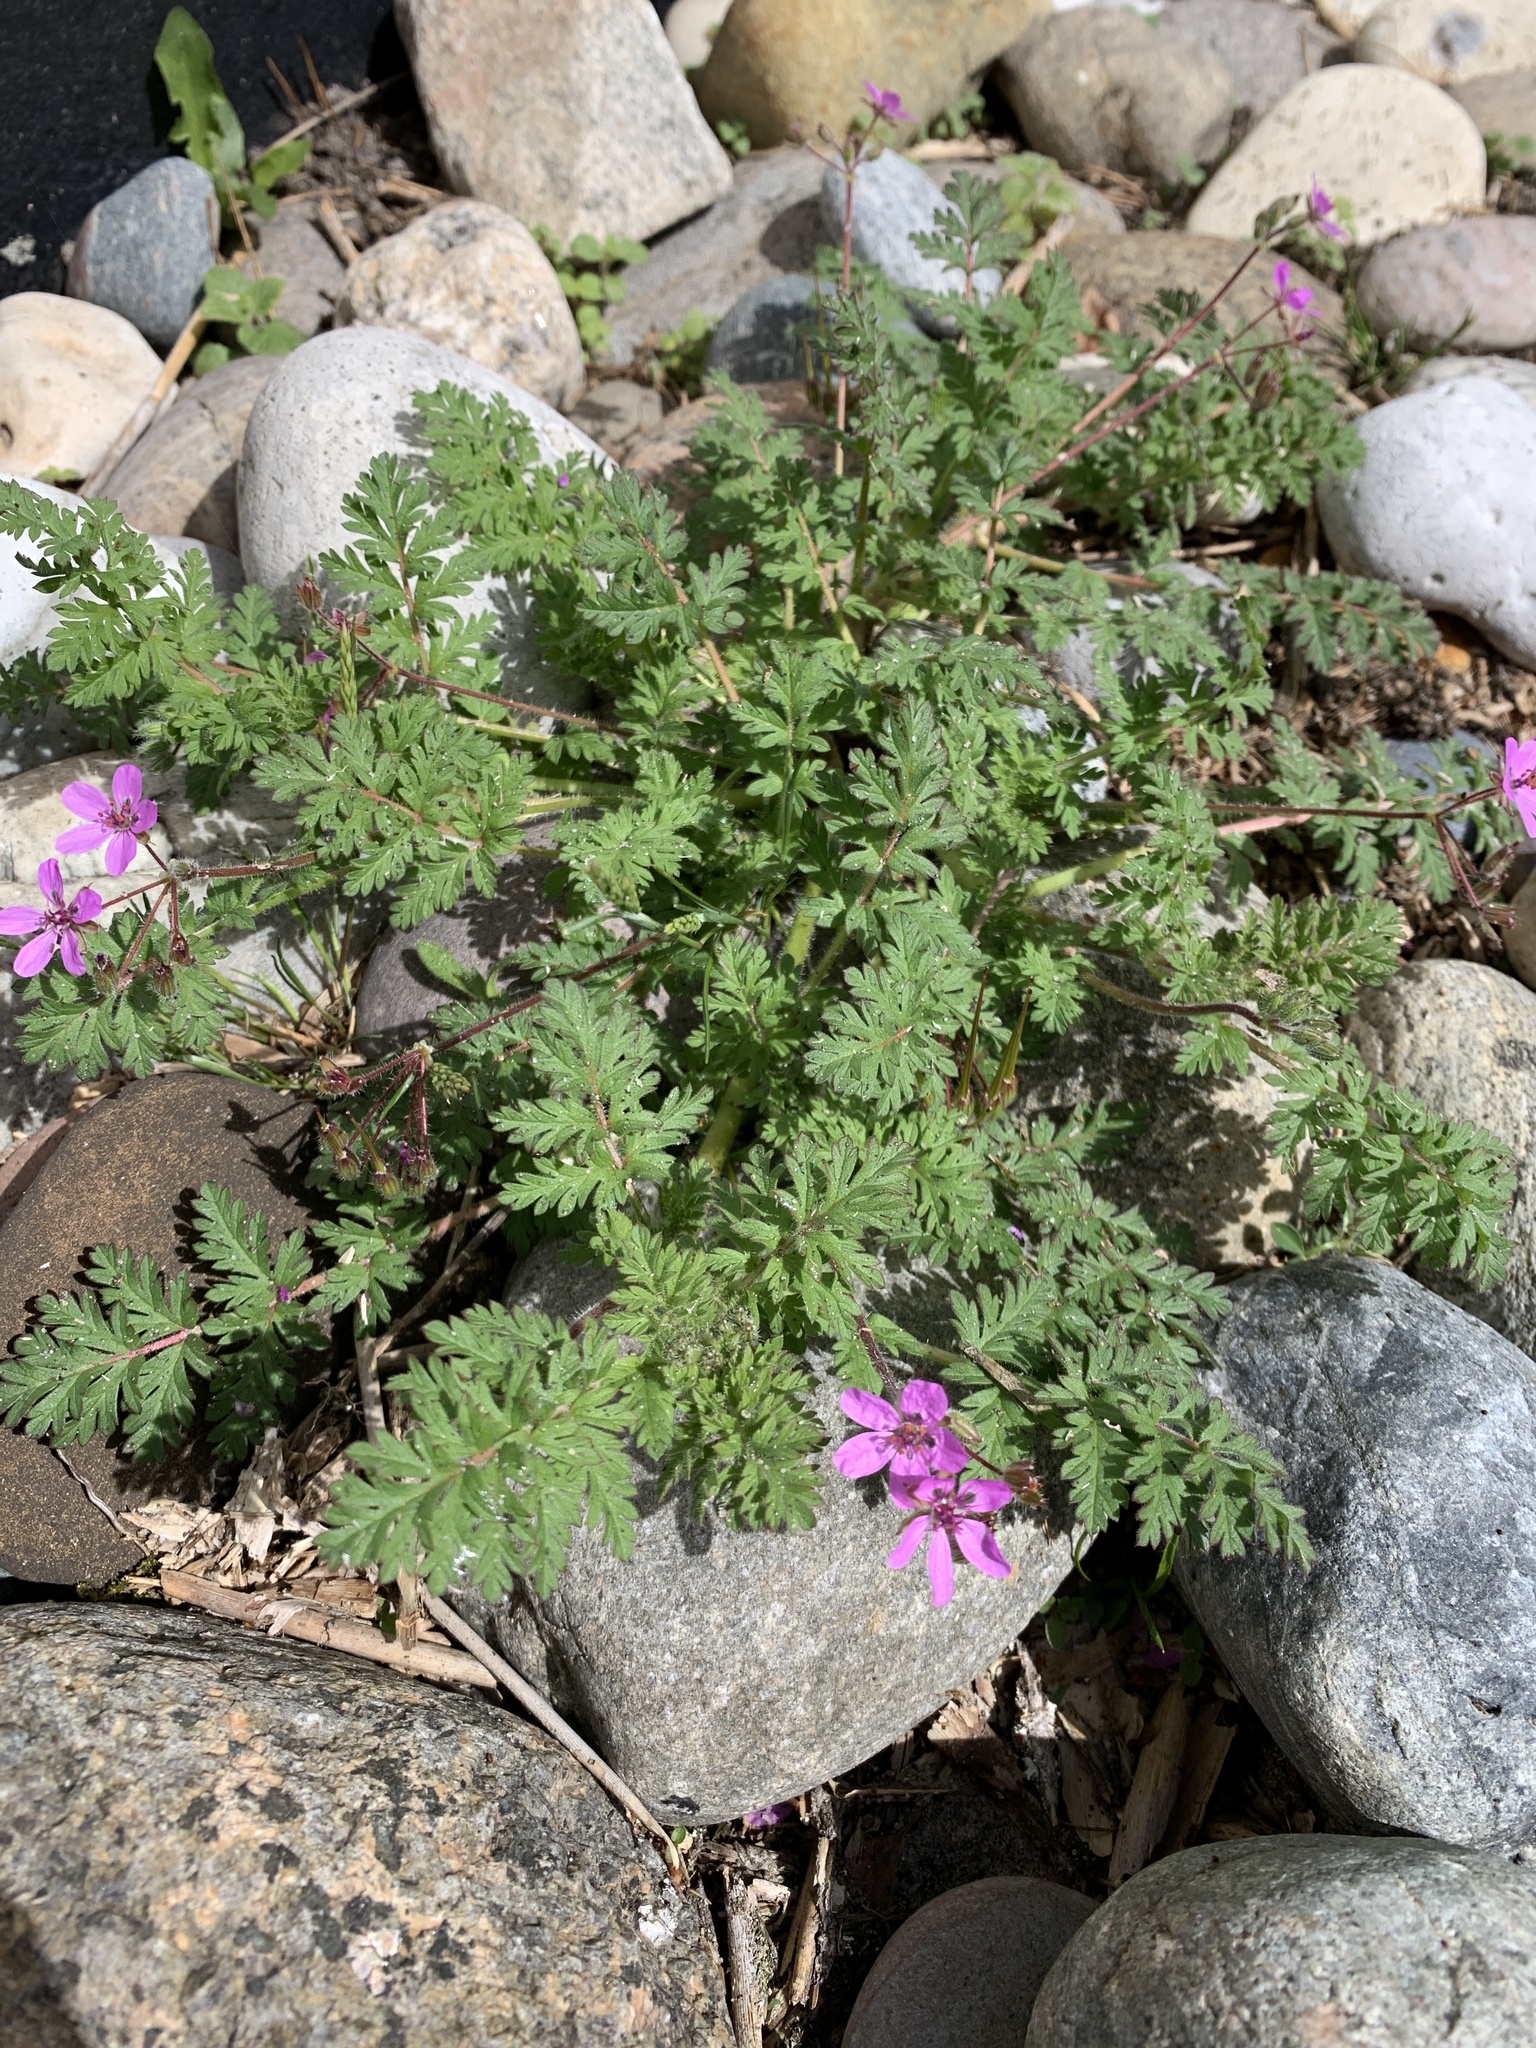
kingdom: Plantae
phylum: Tracheophyta
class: Magnoliopsida
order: Geraniales
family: Geraniaceae
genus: Erodium
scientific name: Erodium cicutarium
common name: Common stork's-bill
